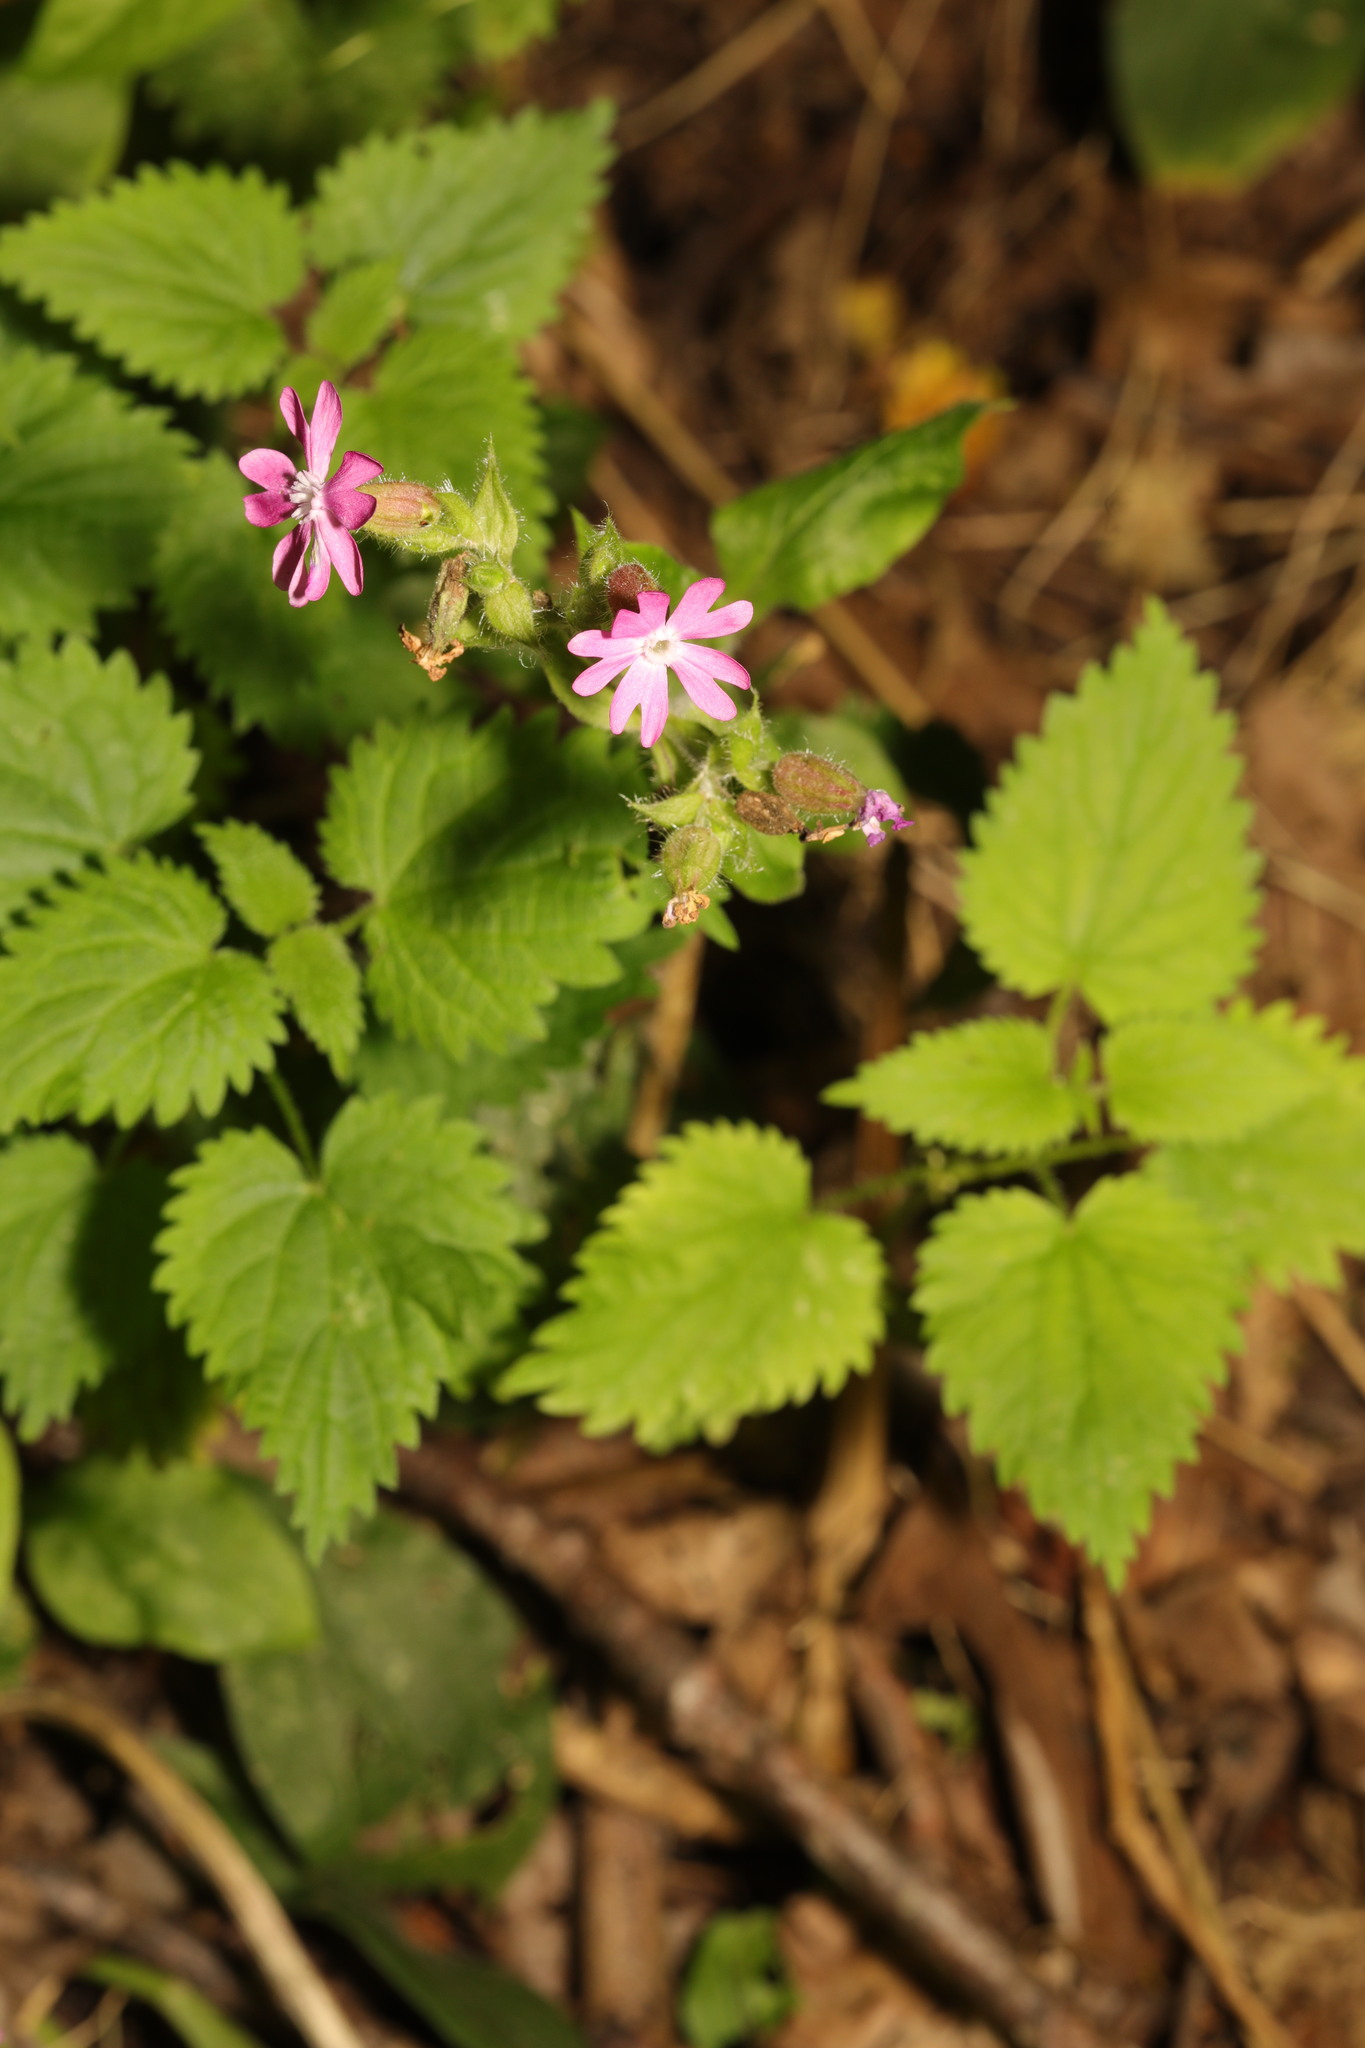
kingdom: Plantae
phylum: Tracheophyta
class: Magnoliopsida
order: Caryophyllales
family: Caryophyllaceae
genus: Silene
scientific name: Silene dioica
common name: Red campion
